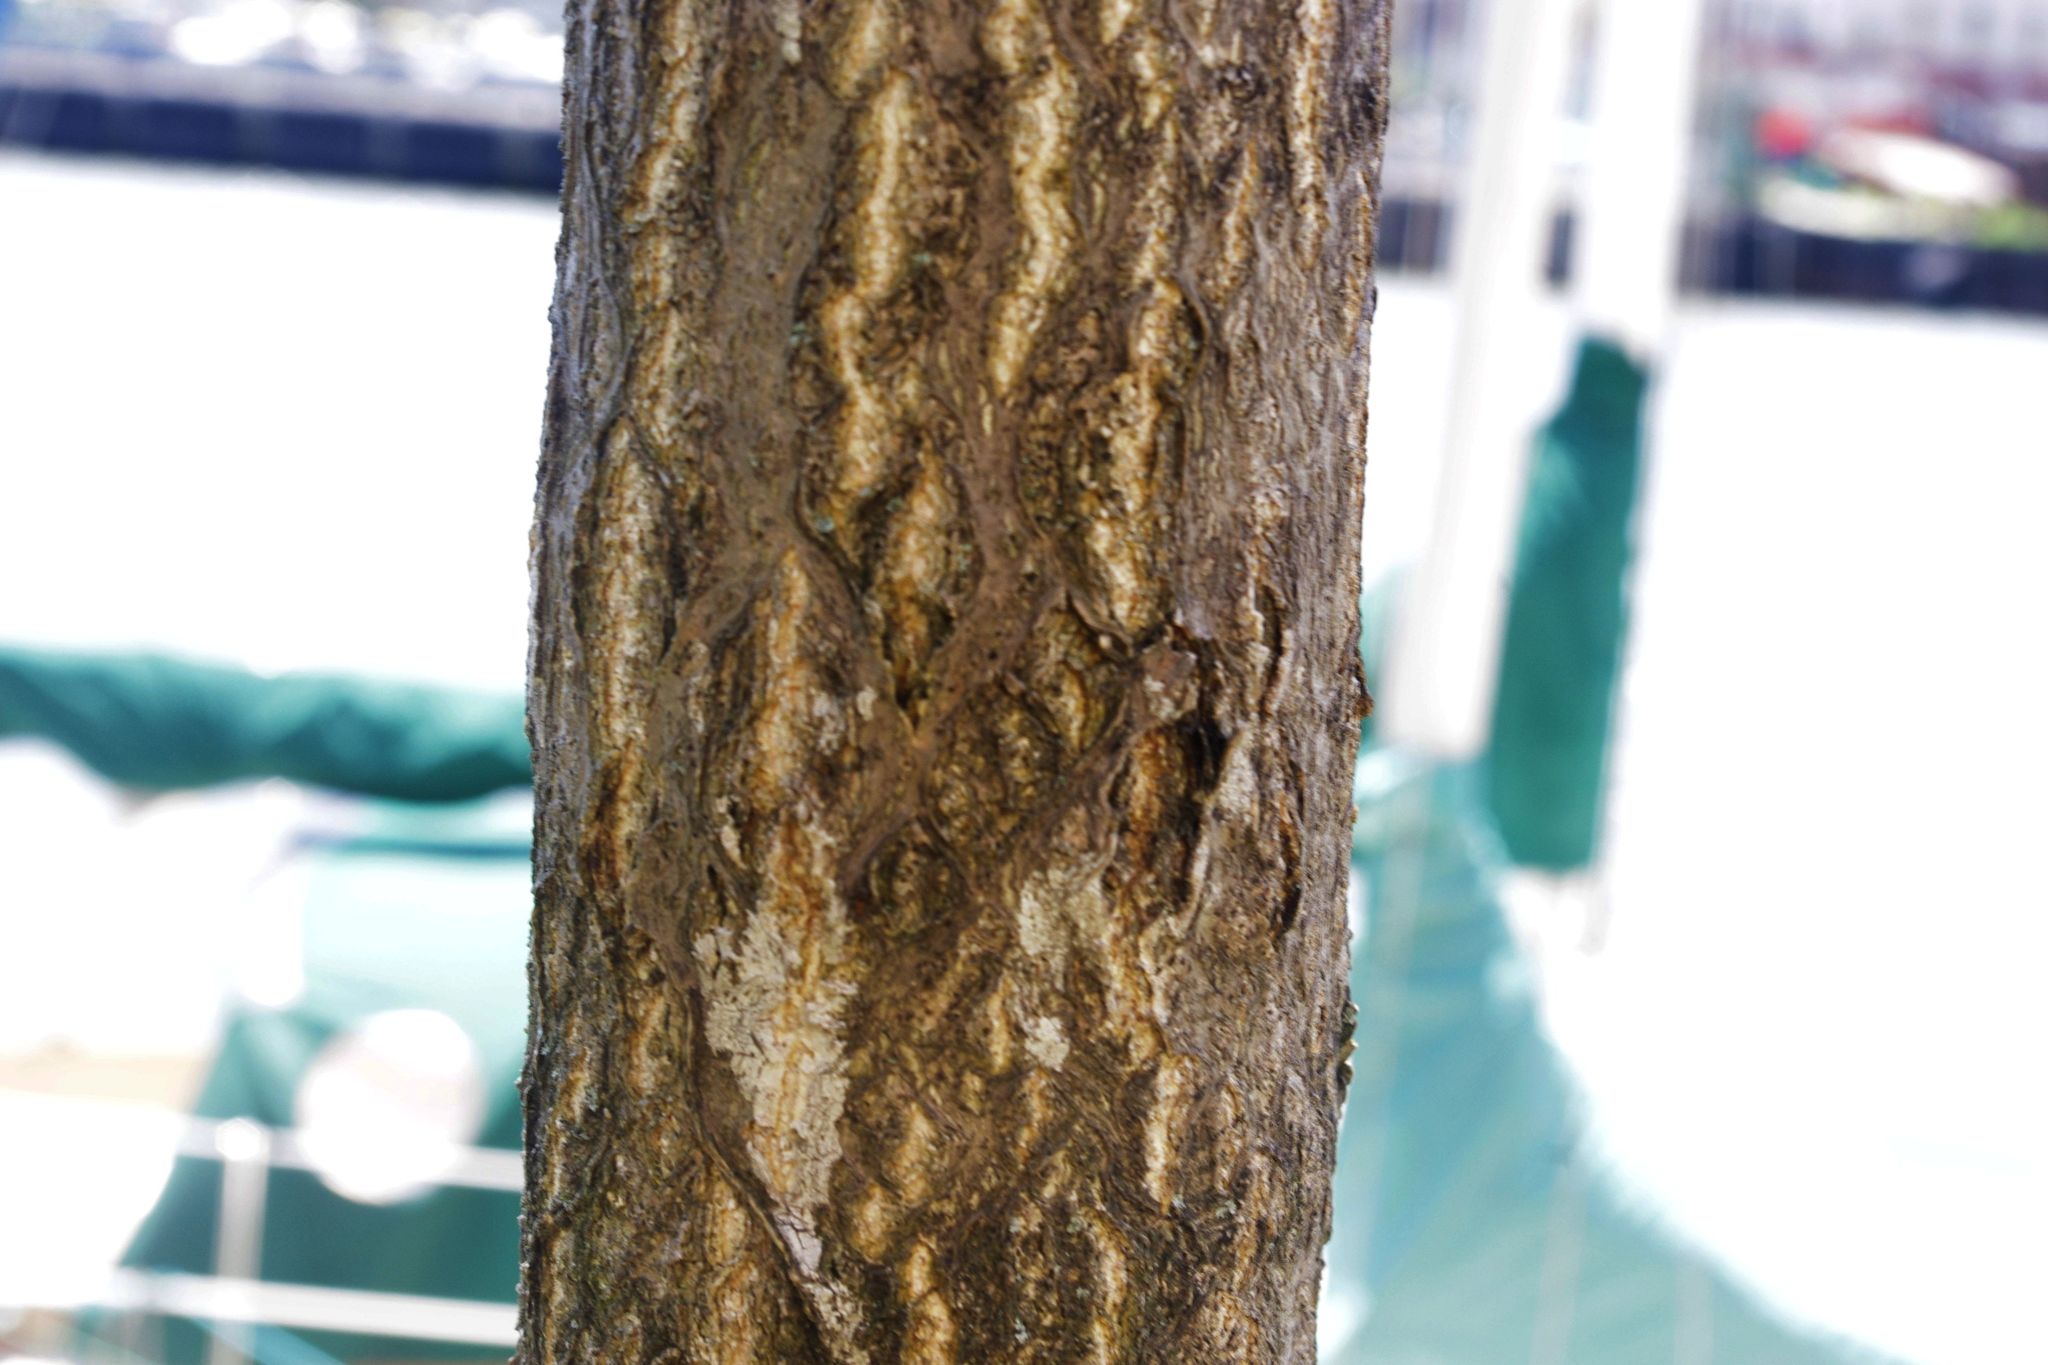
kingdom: Plantae
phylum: Tracheophyta
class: Magnoliopsida
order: Sapindales
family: Simaroubaceae
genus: Ailanthus
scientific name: Ailanthus altissima
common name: Tree-of-heaven
